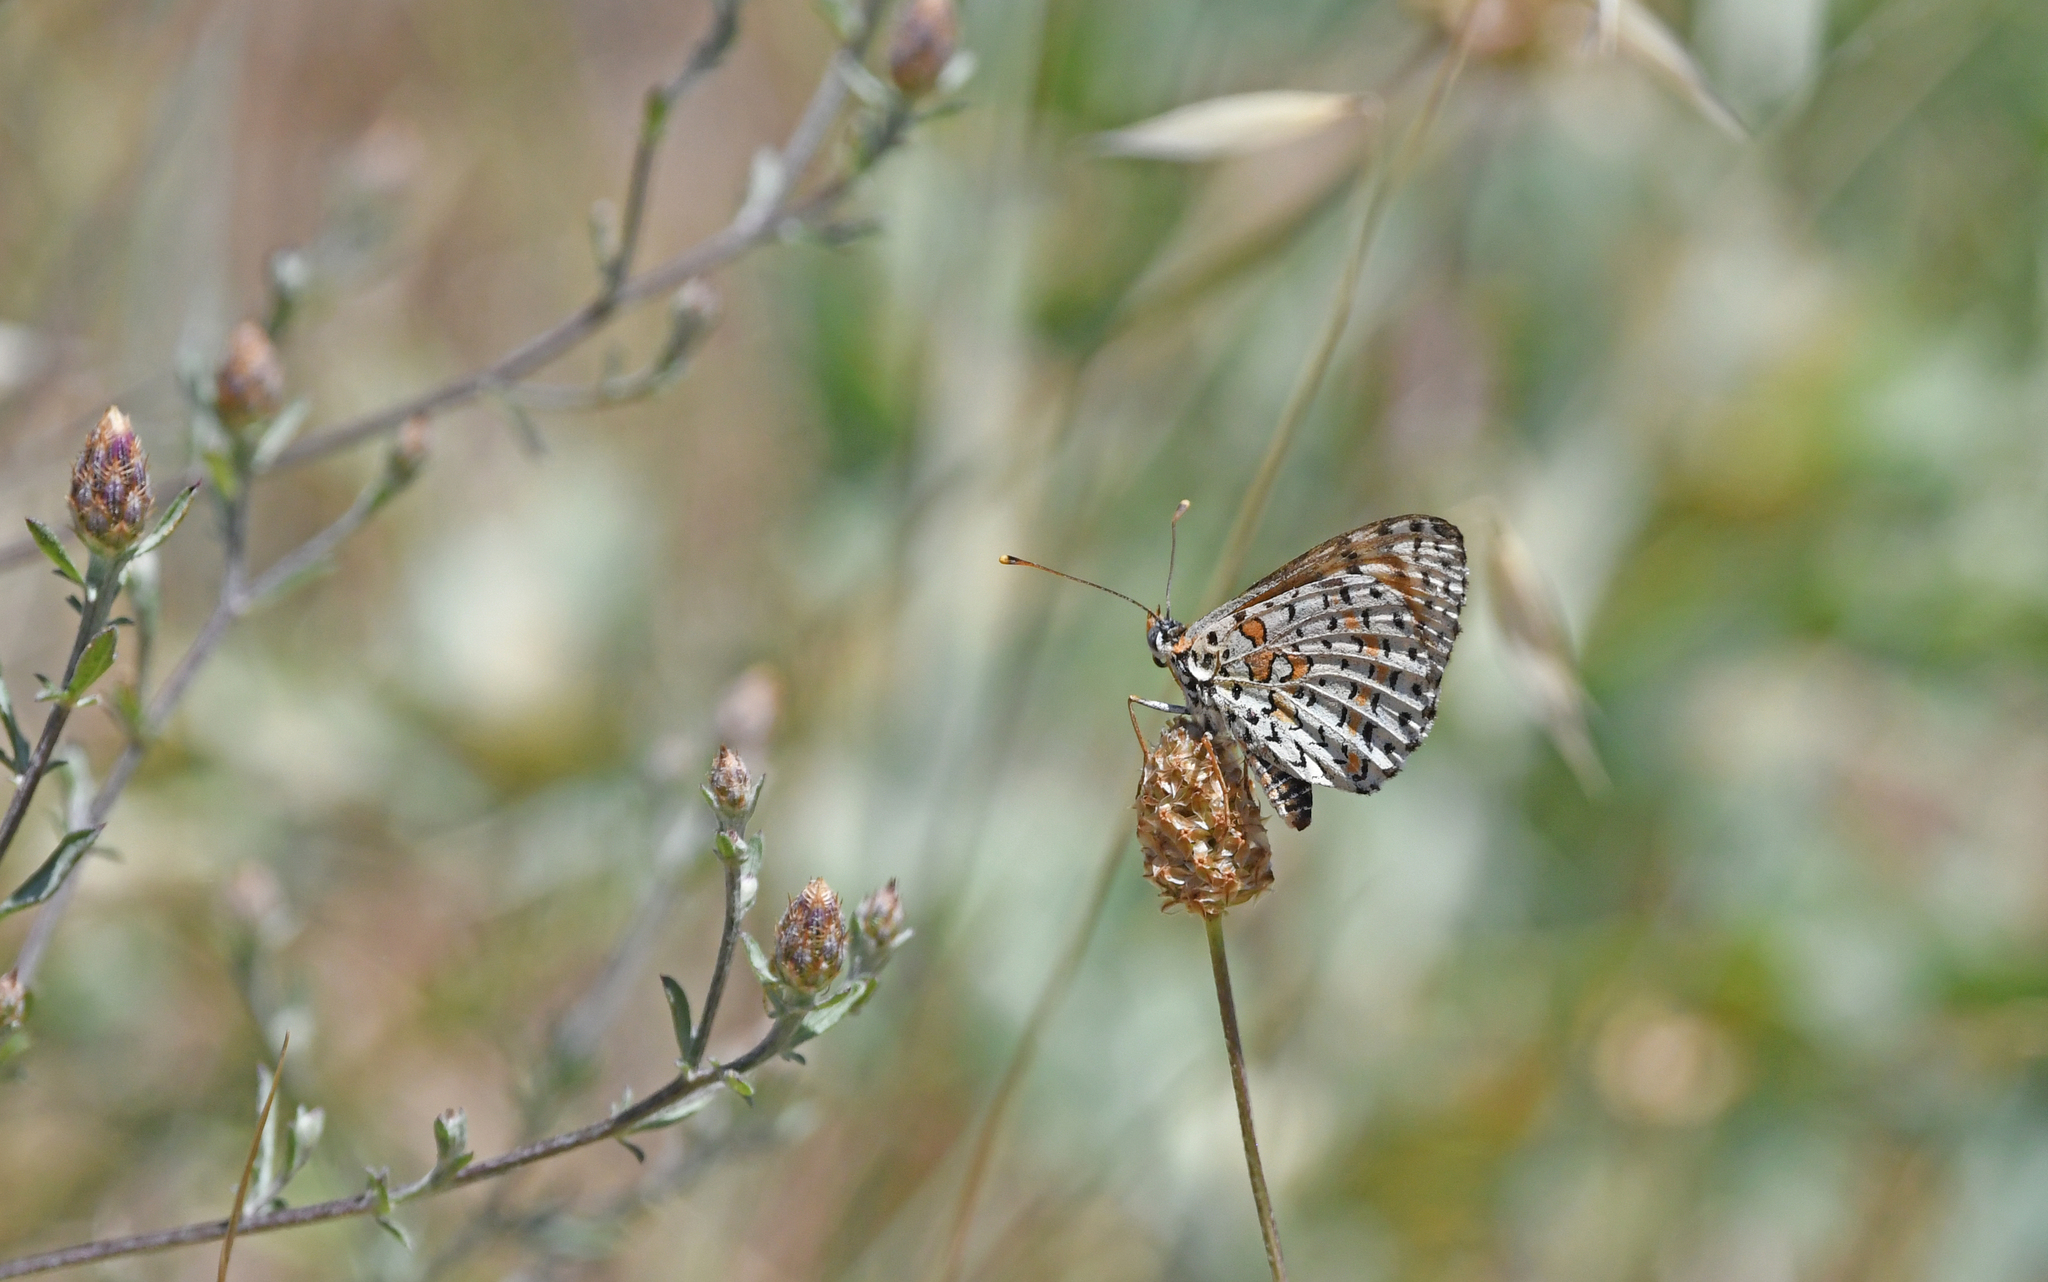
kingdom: Animalia
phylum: Arthropoda
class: Insecta
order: Lepidoptera
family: Nymphalidae
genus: Melitaea
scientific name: Melitaea didyma
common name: Spotted fritillary
